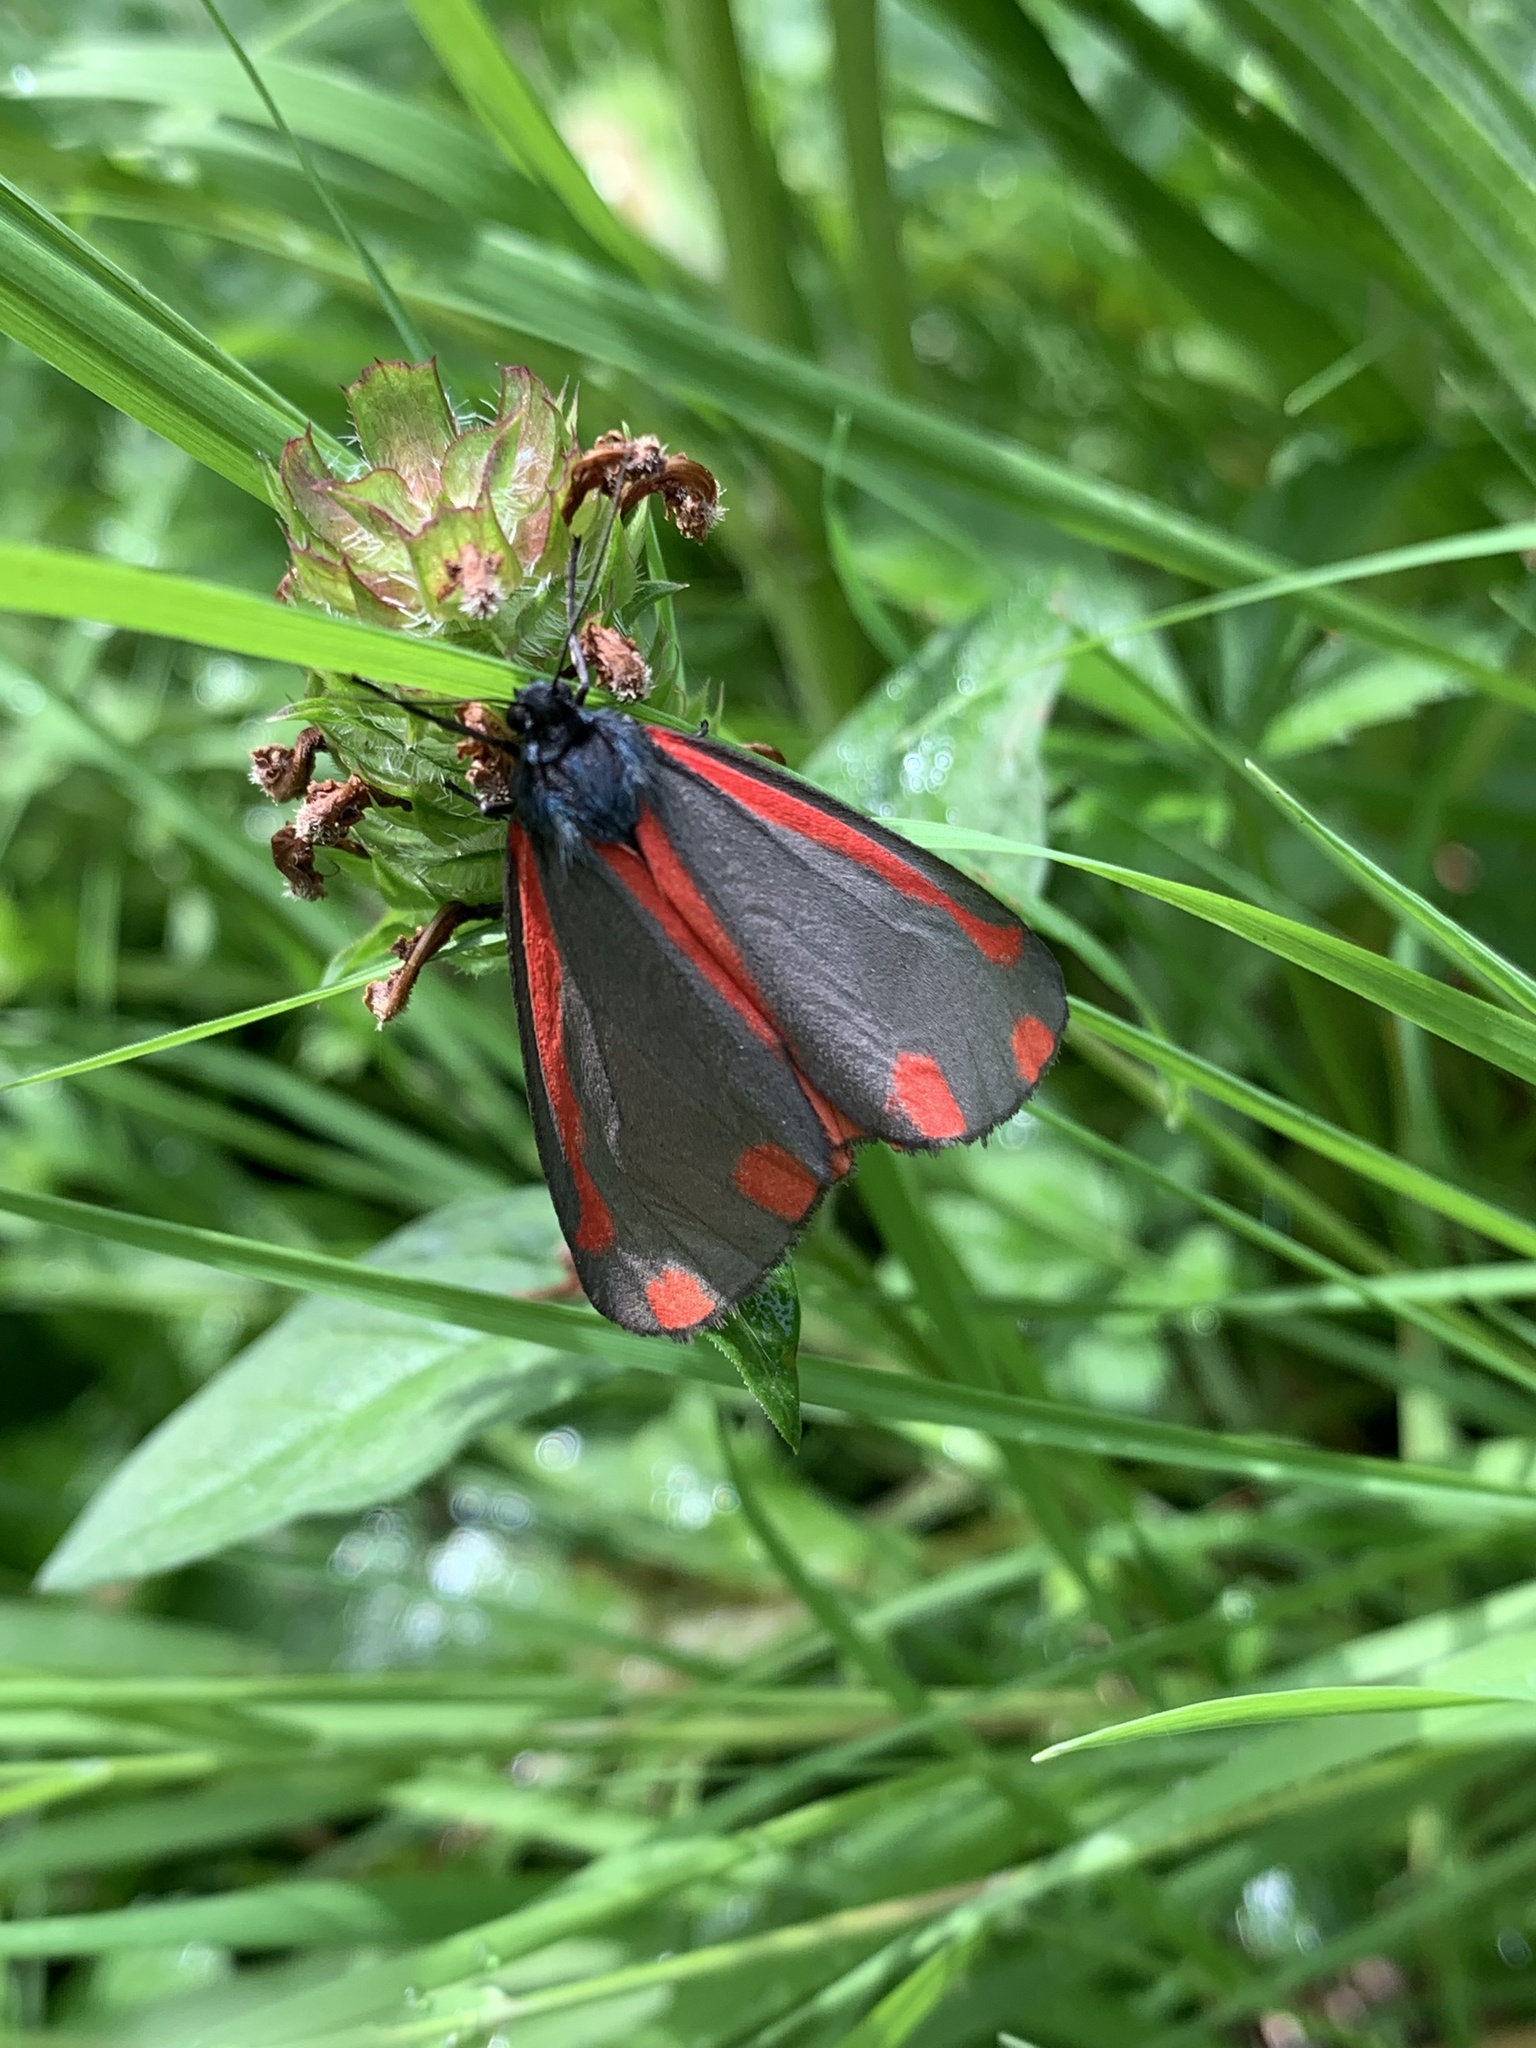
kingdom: Animalia
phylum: Arthropoda
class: Insecta
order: Lepidoptera
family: Erebidae
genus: Tyria
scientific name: Tyria jacobaeae
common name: Cinnabar
